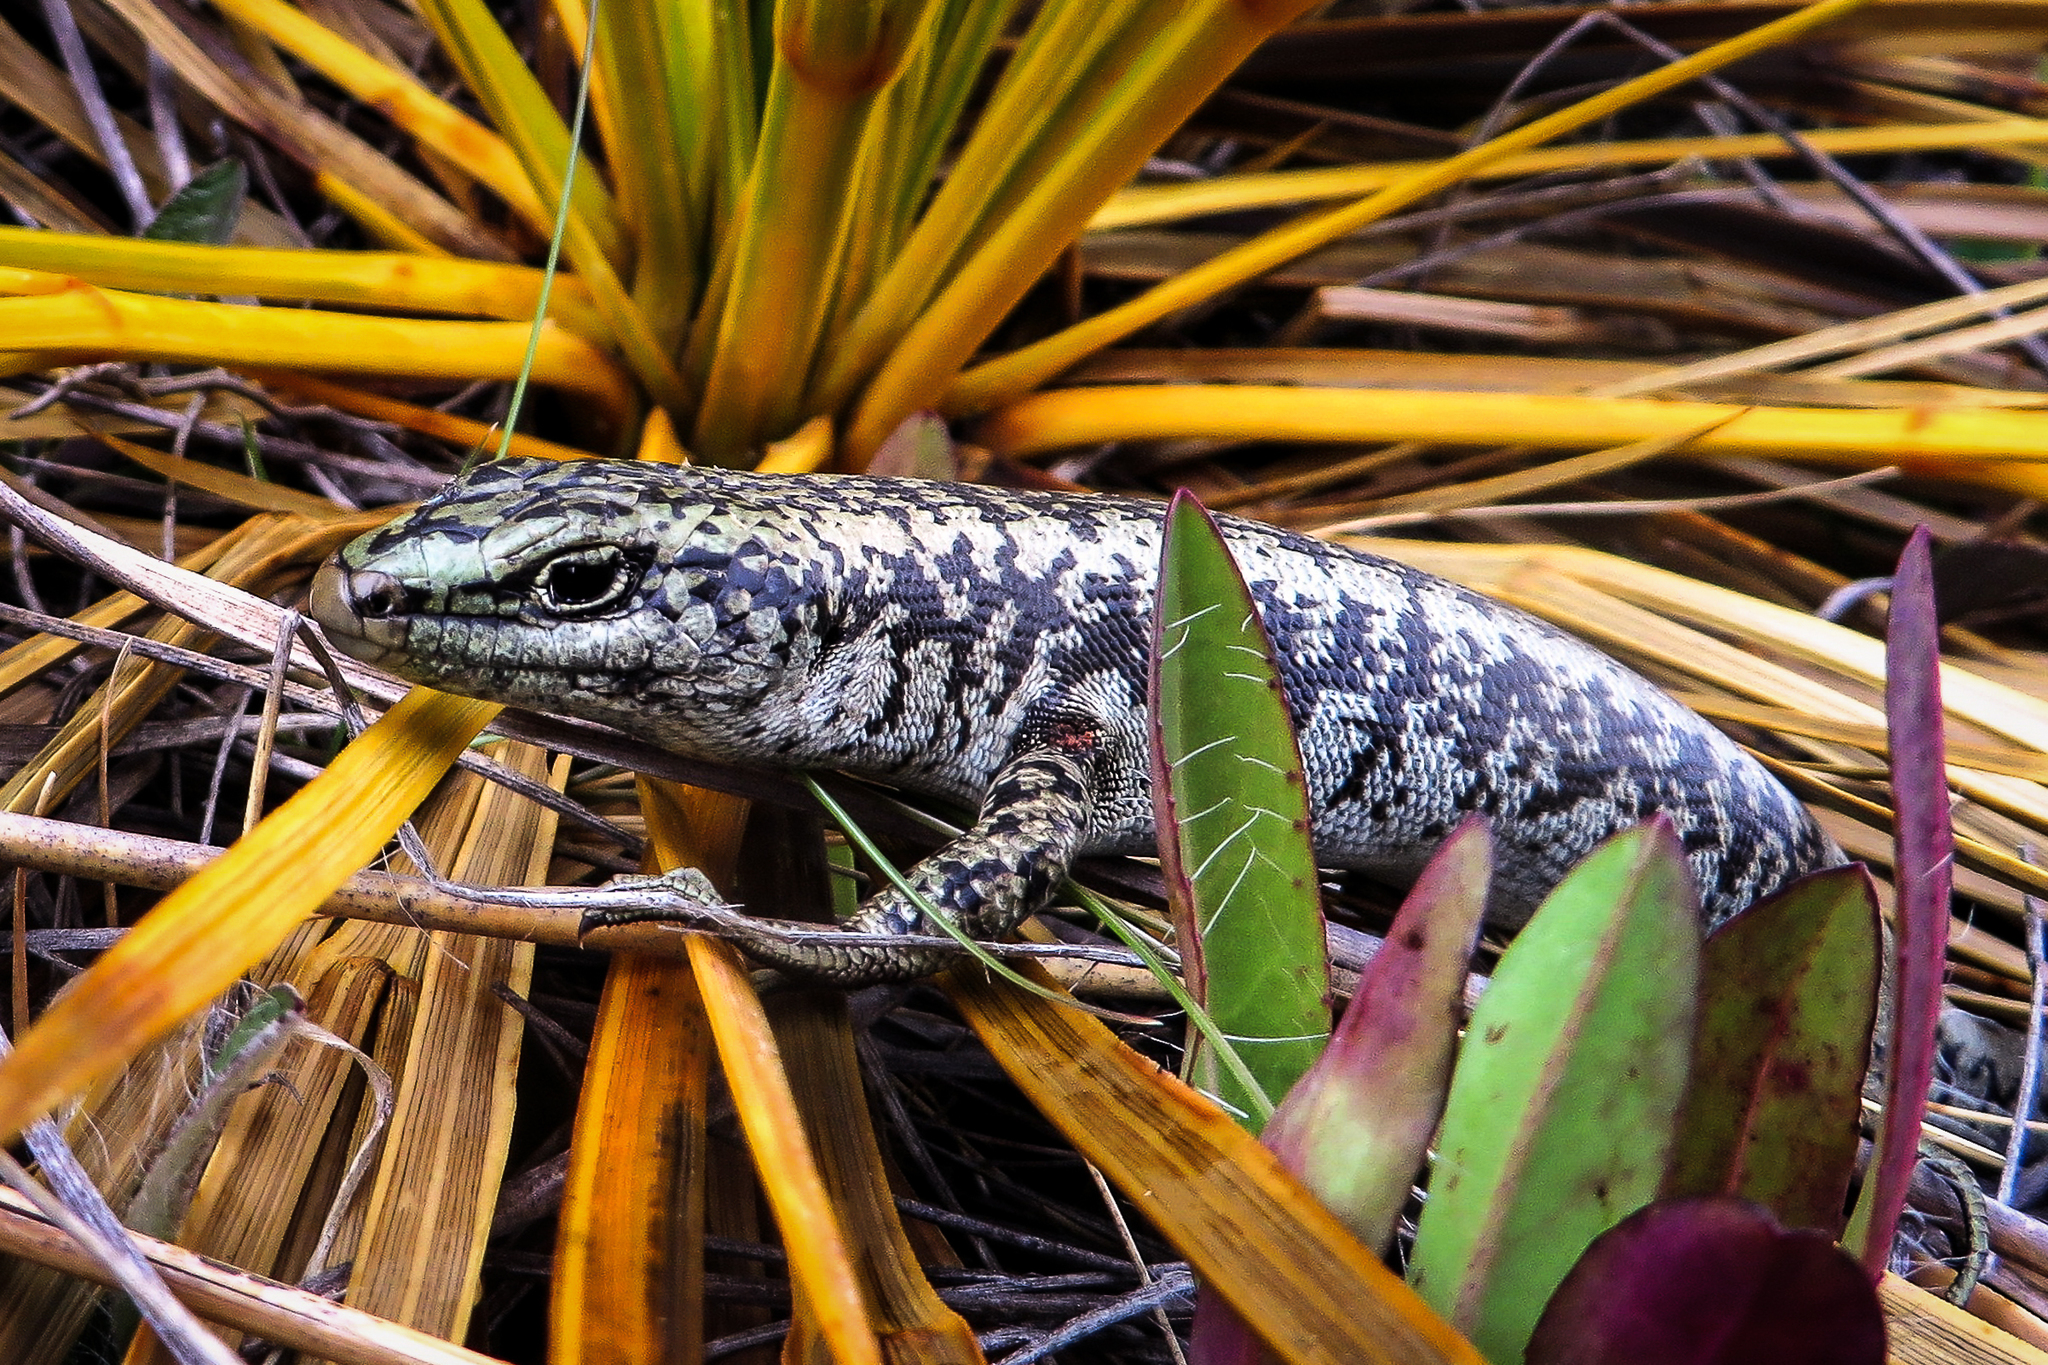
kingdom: Animalia
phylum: Chordata
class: Squamata
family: Scincidae
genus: Oligosoma
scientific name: Oligosoma waimatense
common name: Scree skink
